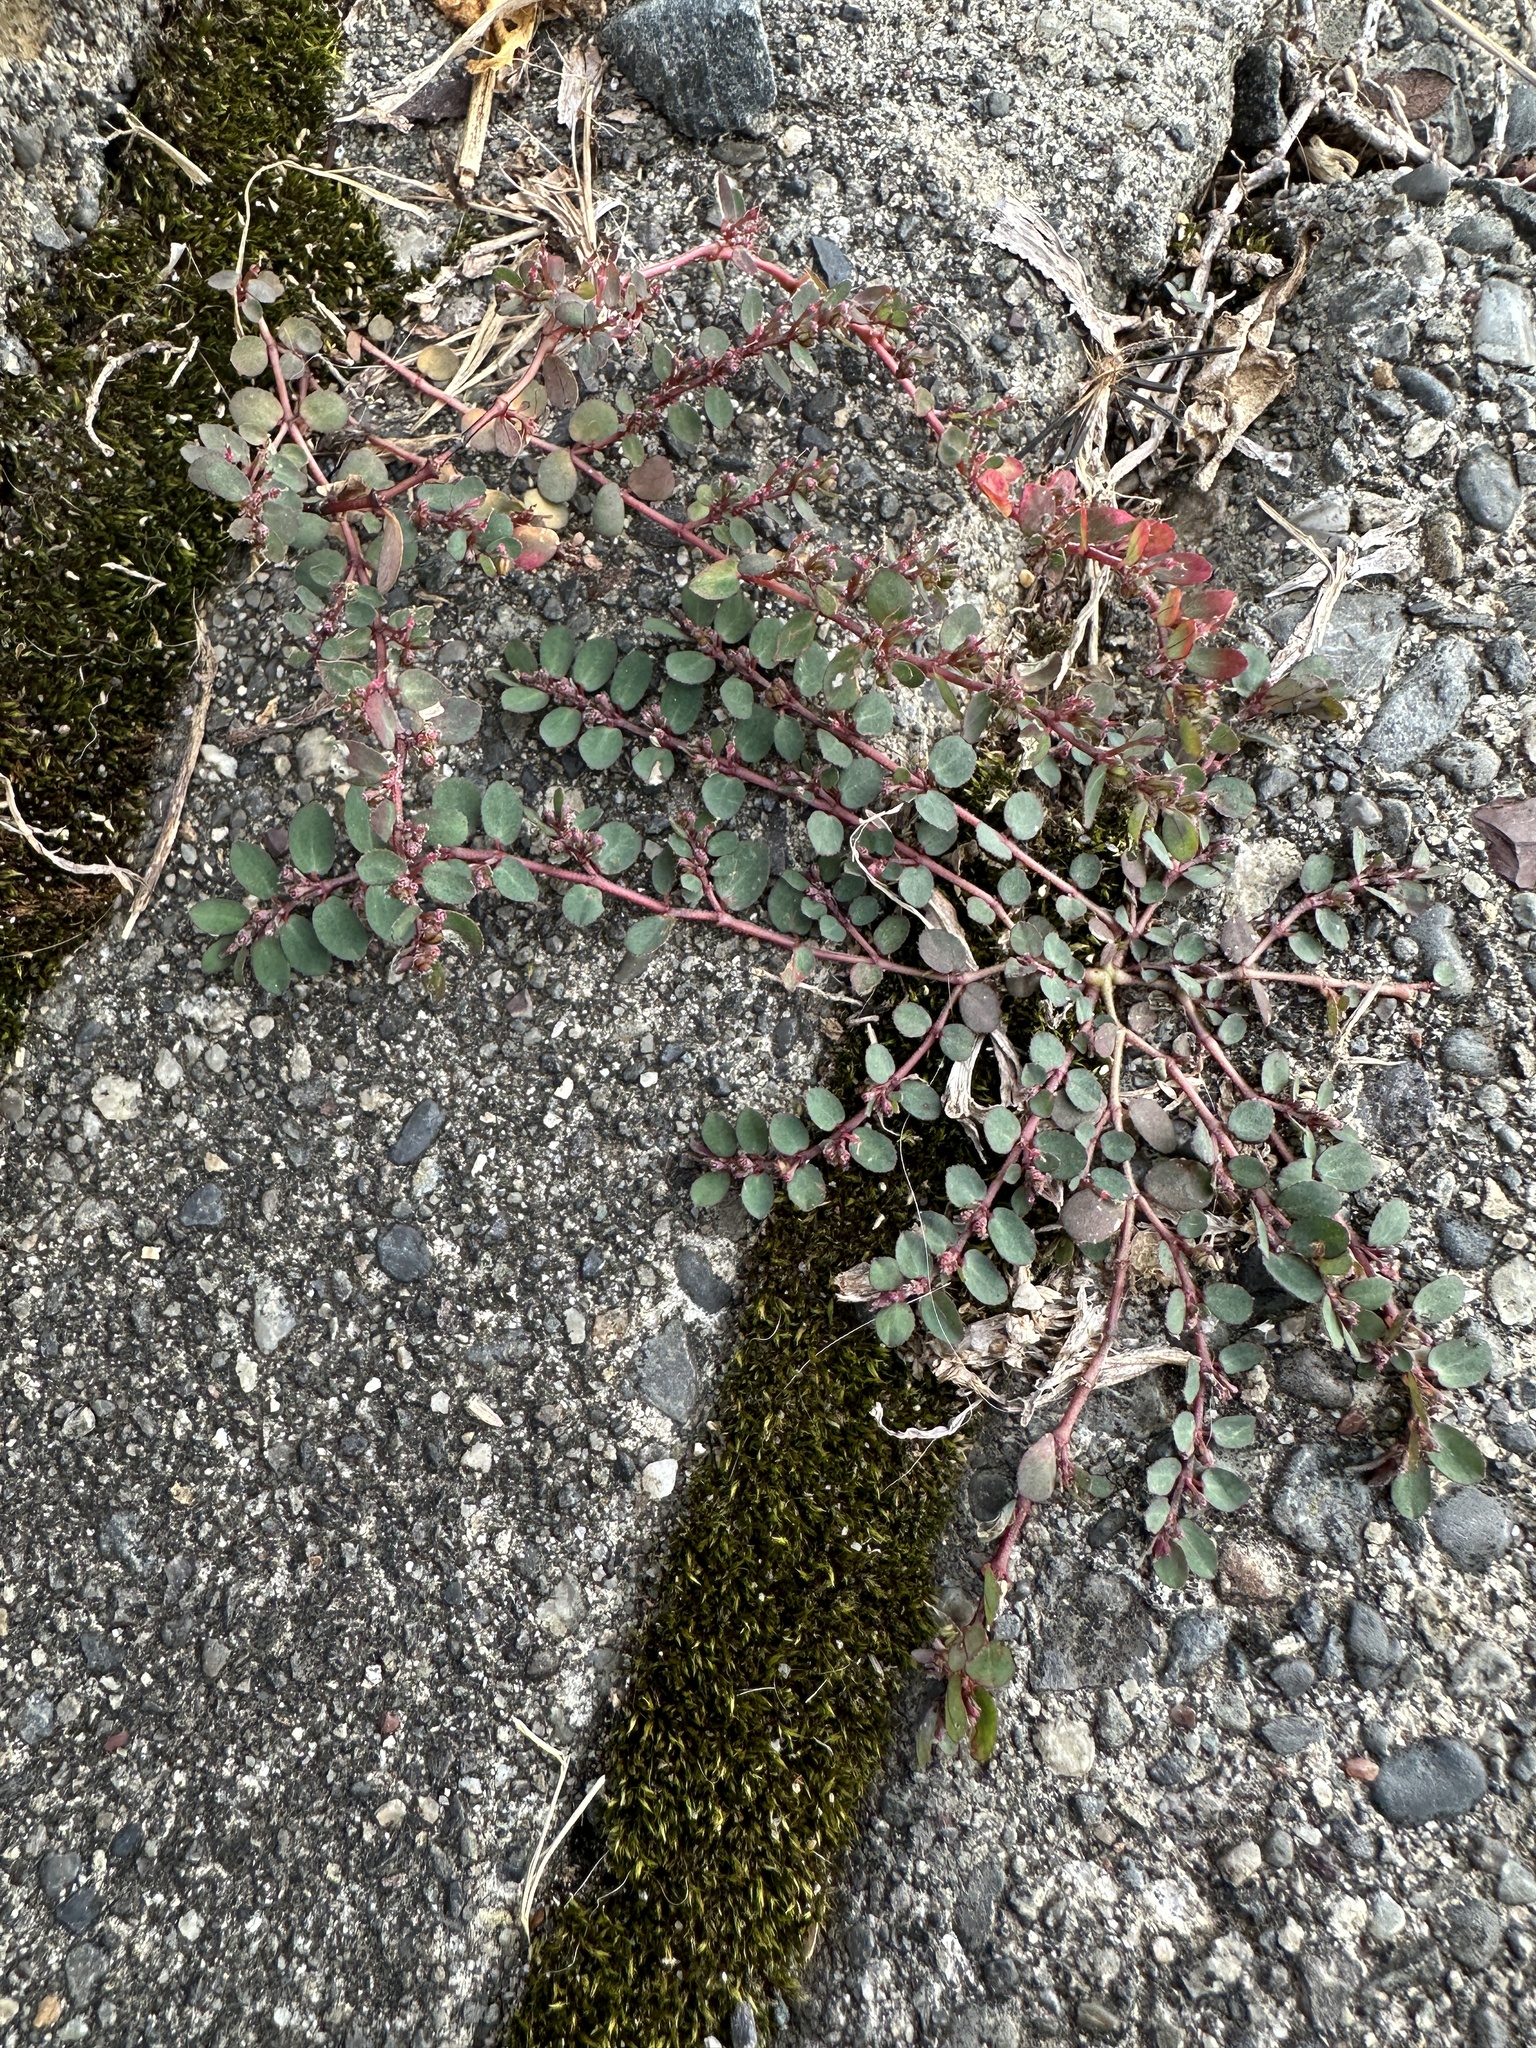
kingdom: Plantae
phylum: Tracheophyta
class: Magnoliopsida
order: Malpighiales
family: Euphorbiaceae
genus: Euphorbia
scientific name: Euphorbia prostrata
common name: Prostrate sandmat
